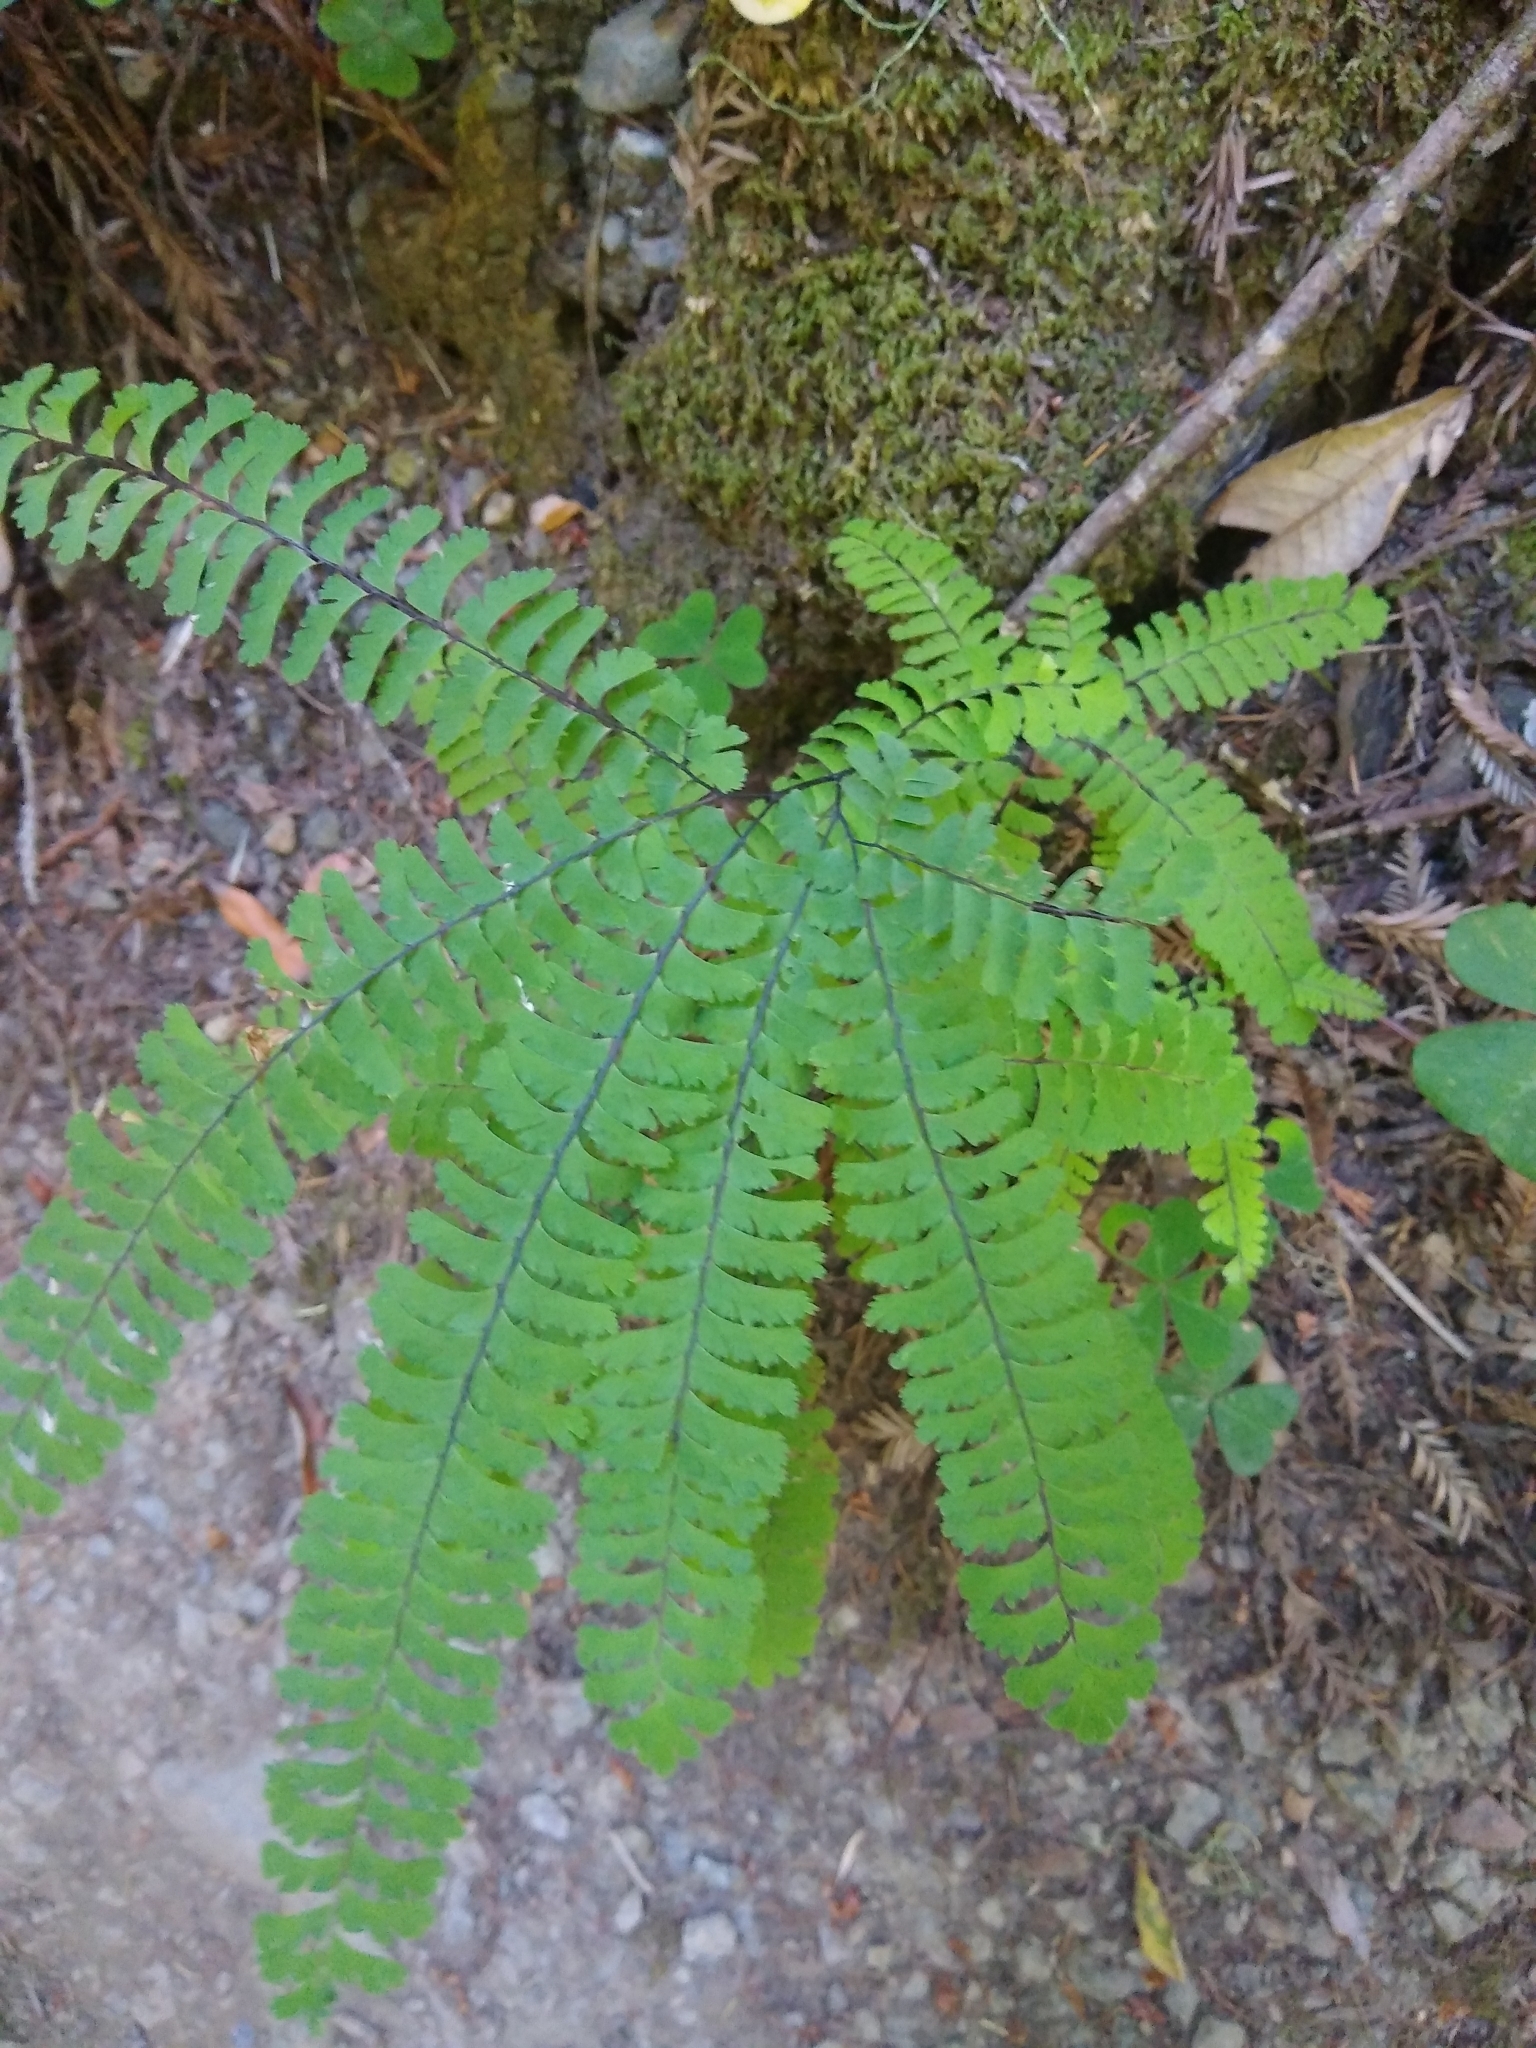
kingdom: Plantae
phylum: Tracheophyta
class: Polypodiopsida
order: Polypodiales
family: Pteridaceae
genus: Adiantum
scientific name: Adiantum aleuticum
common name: Aleutian maidenhair fern
